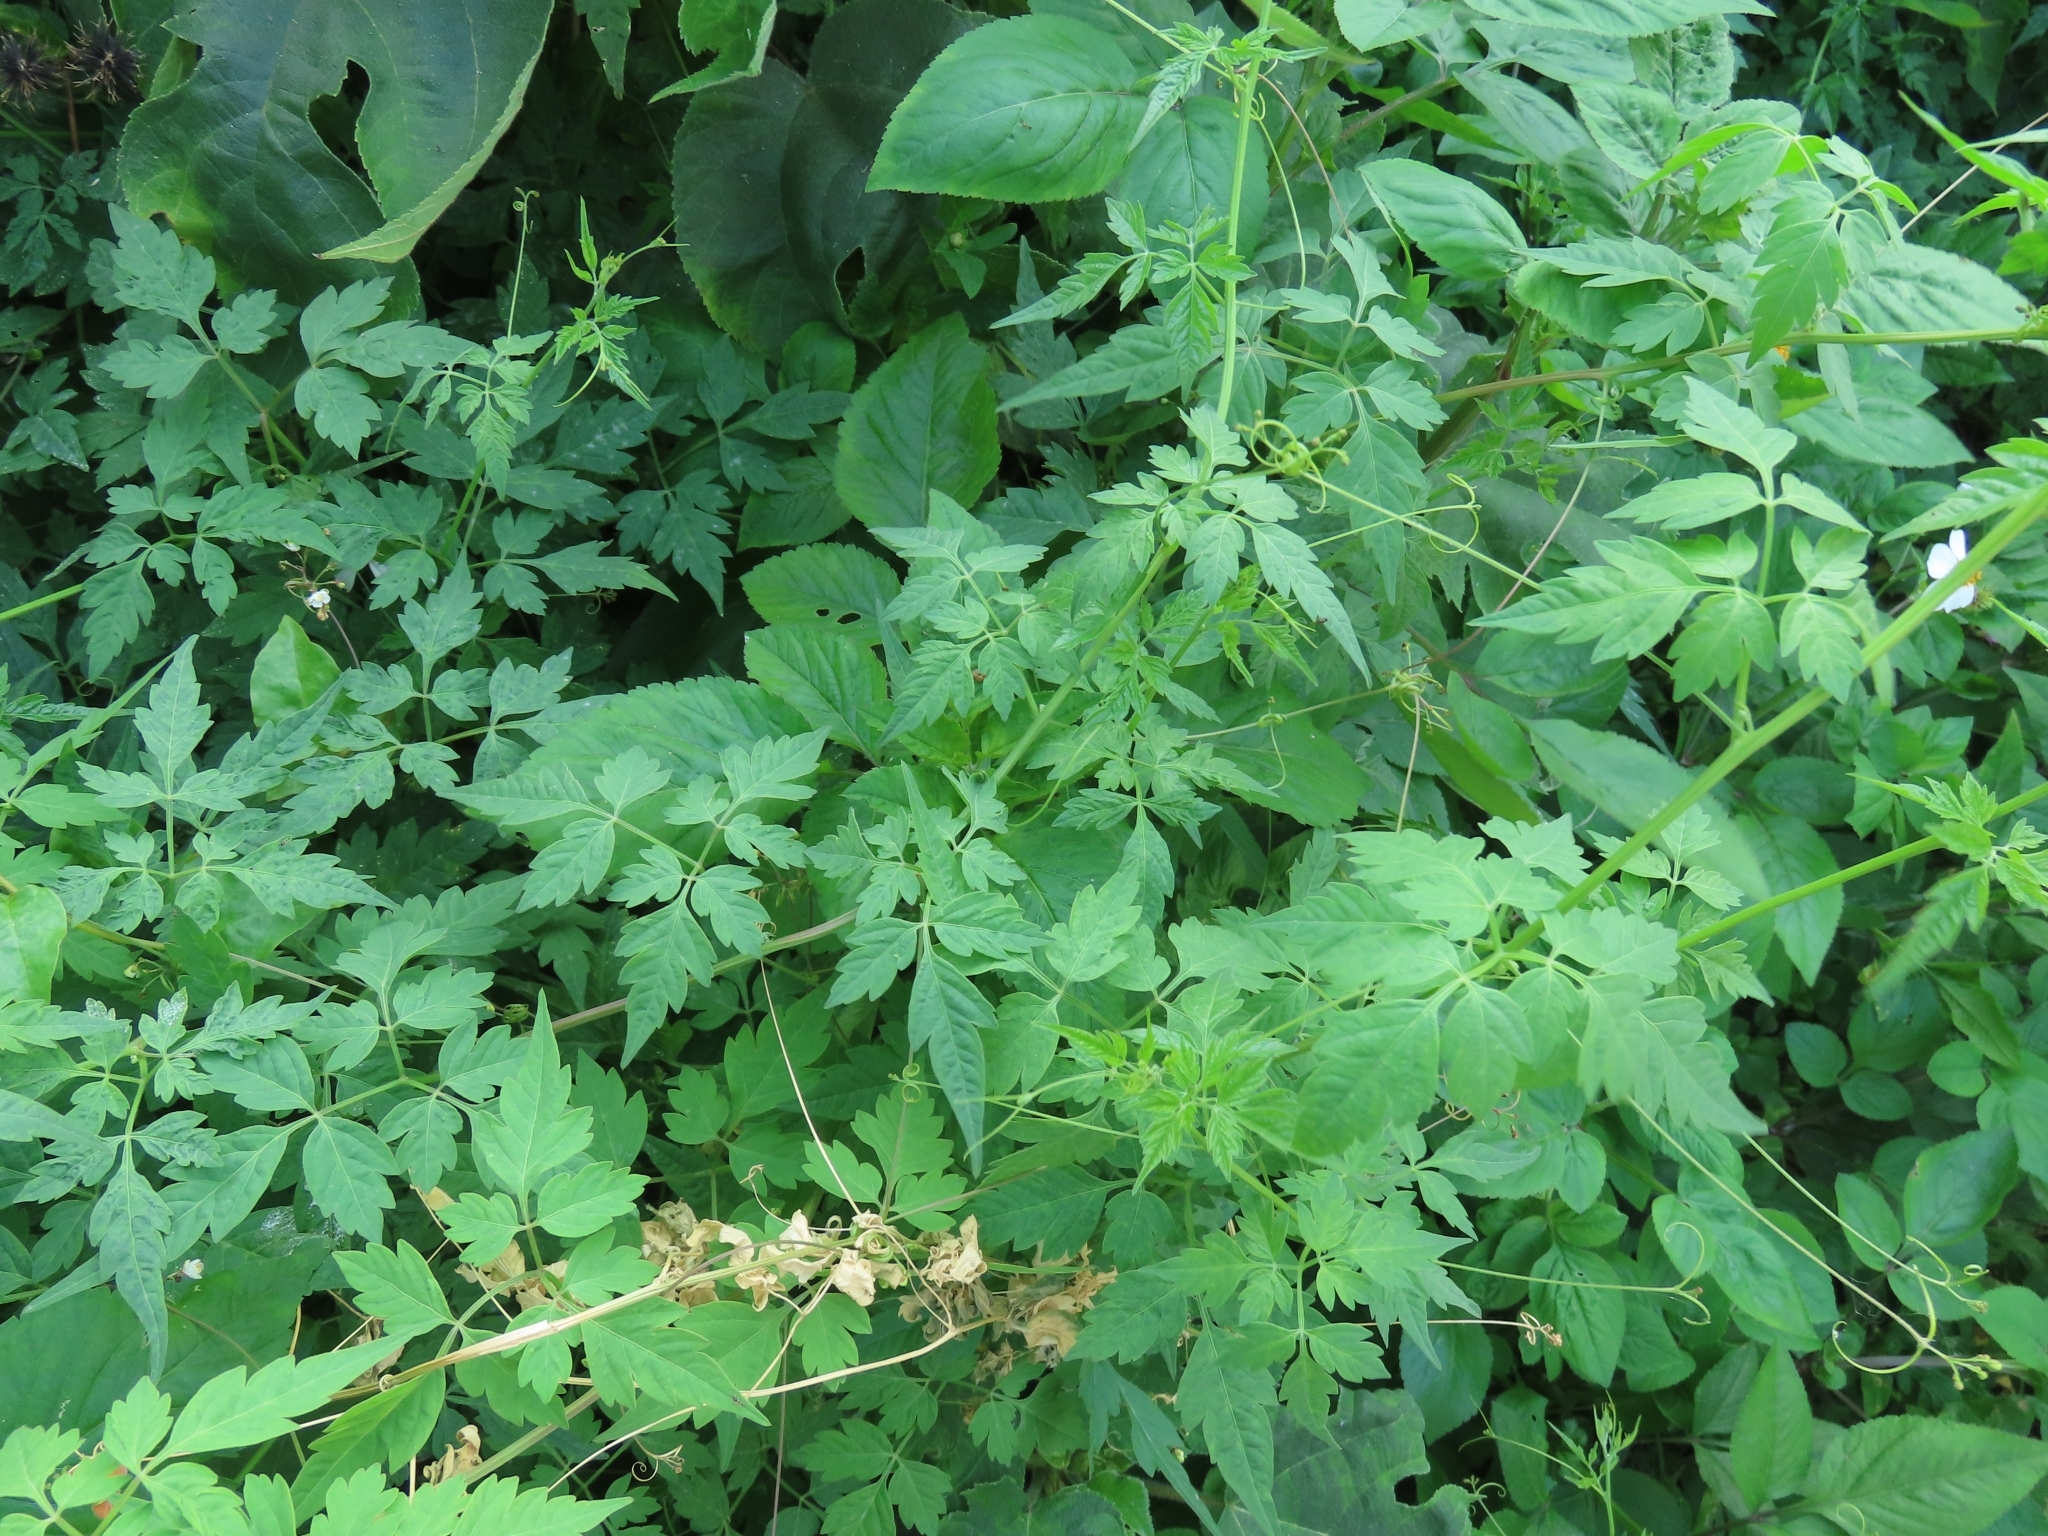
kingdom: Plantae
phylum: Tracheophyta
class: Magnoliopsida
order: Sapindales
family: Sapindaceae
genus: Cardiospermum
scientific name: Cardiospermum halicacabum
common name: Balloon vine
